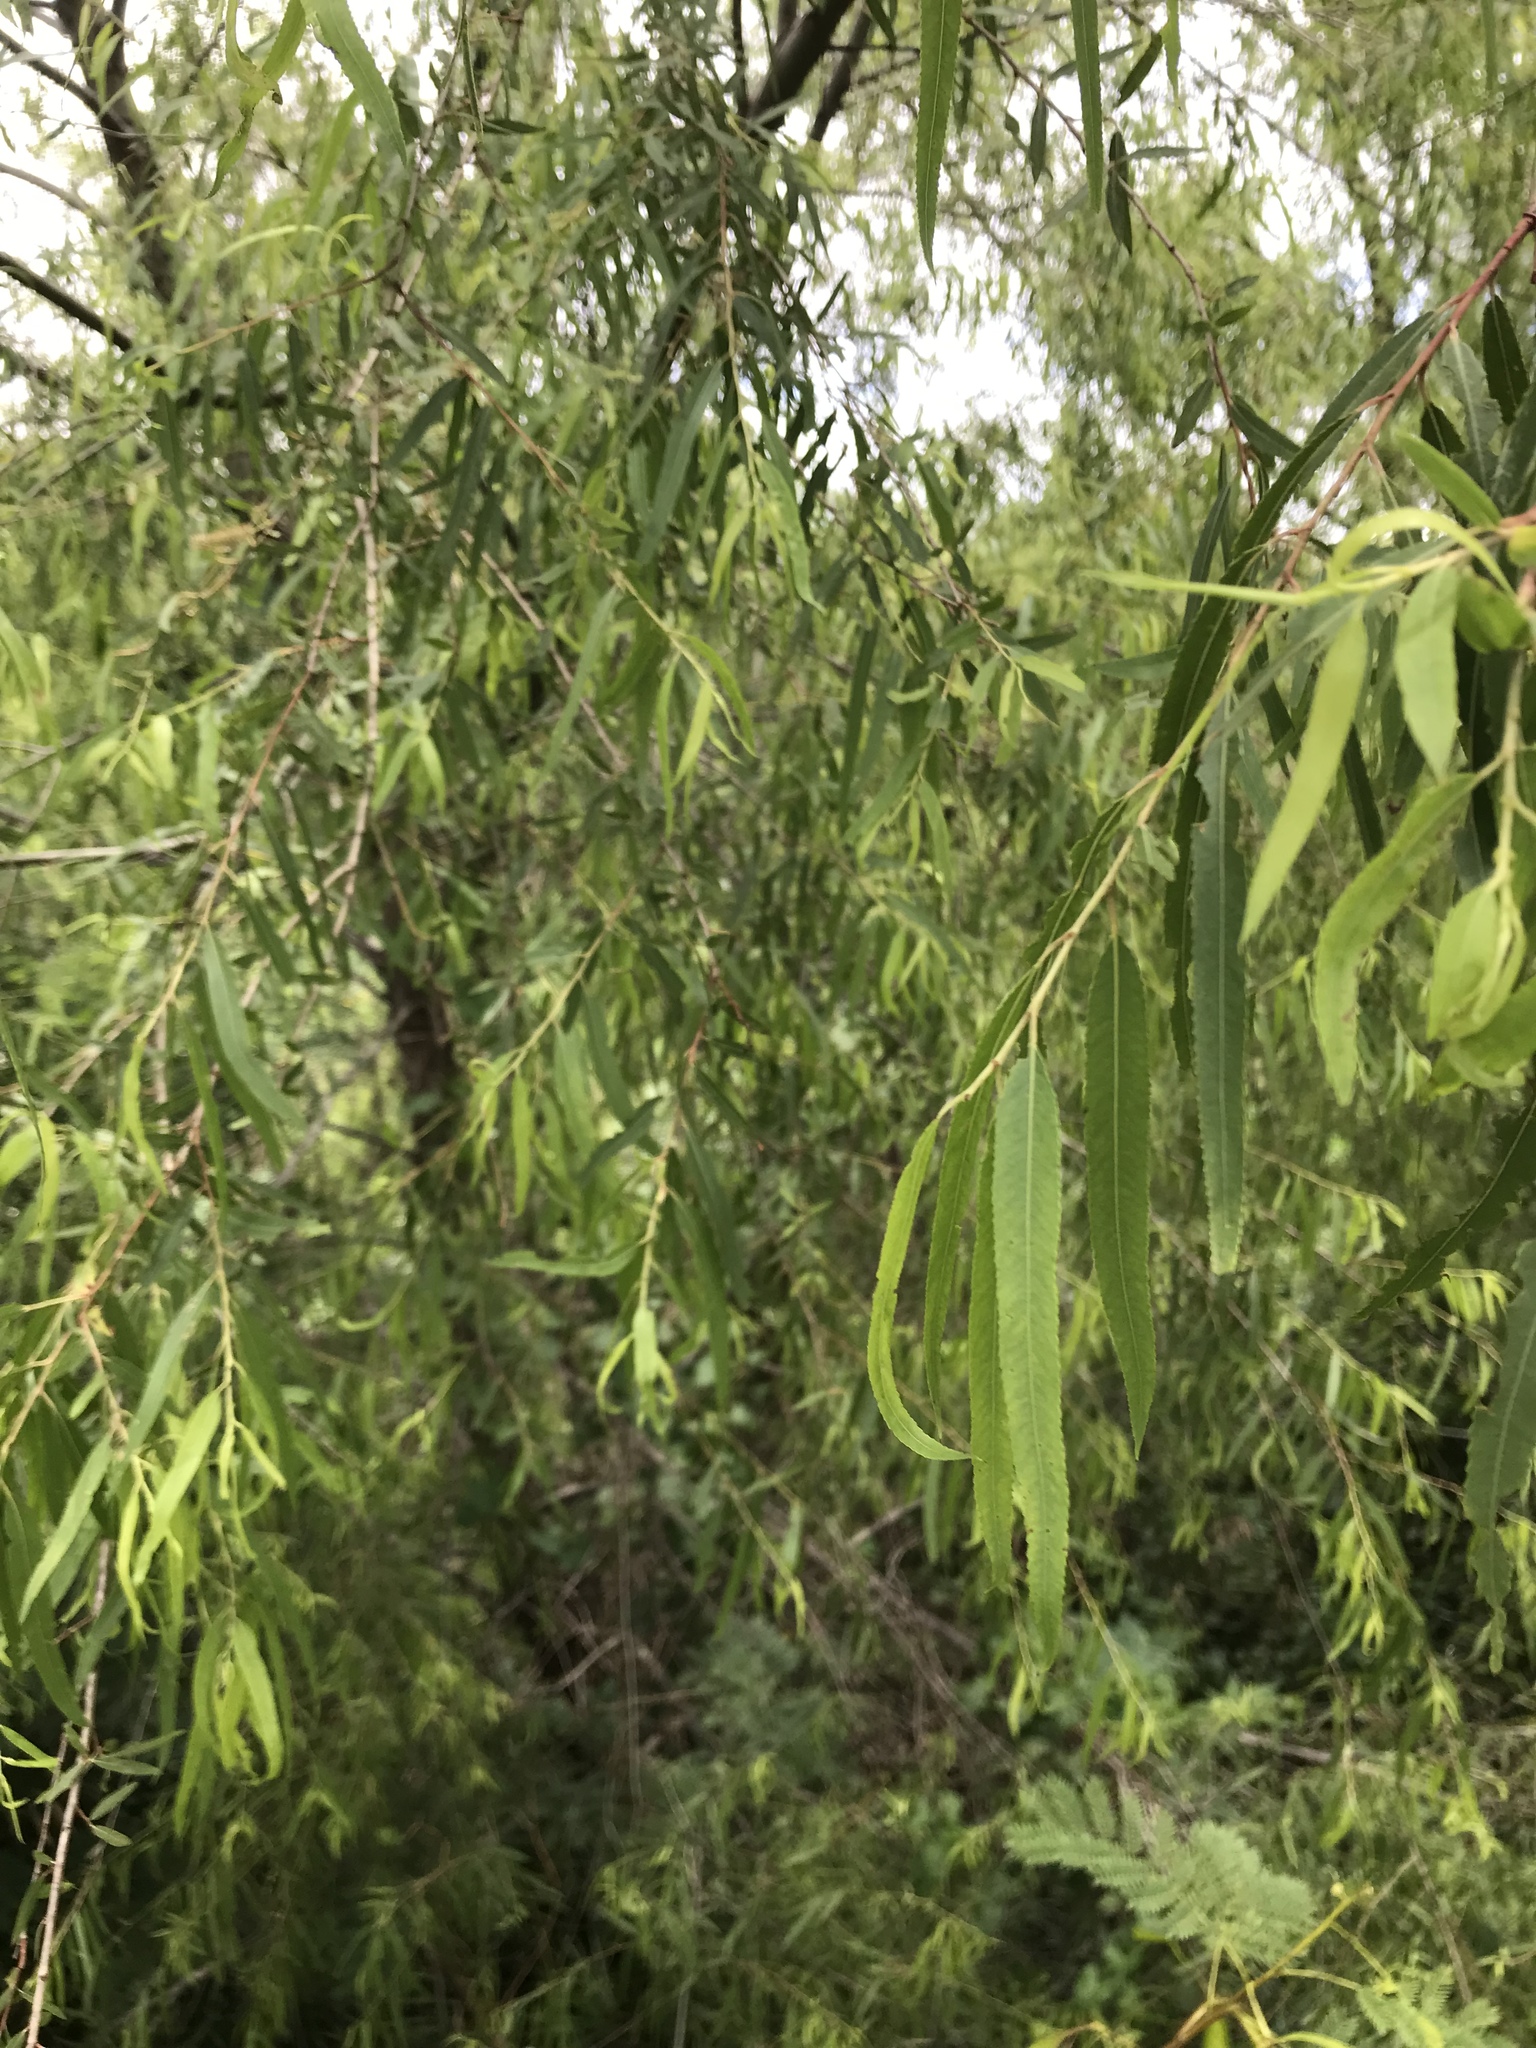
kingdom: Plantae
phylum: Tracheophyta
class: Magnoliopsida
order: Malpighiales
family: Salicaceae
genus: Salix
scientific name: Salix nigra
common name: Black willow
